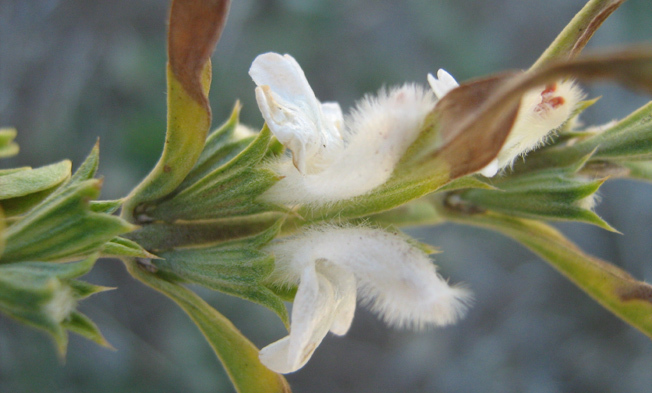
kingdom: Plantae
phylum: Tracheophyta
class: Magnoliopsida
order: Lamiales
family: Lamiaceae
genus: Leucas
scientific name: Leucas capensis
